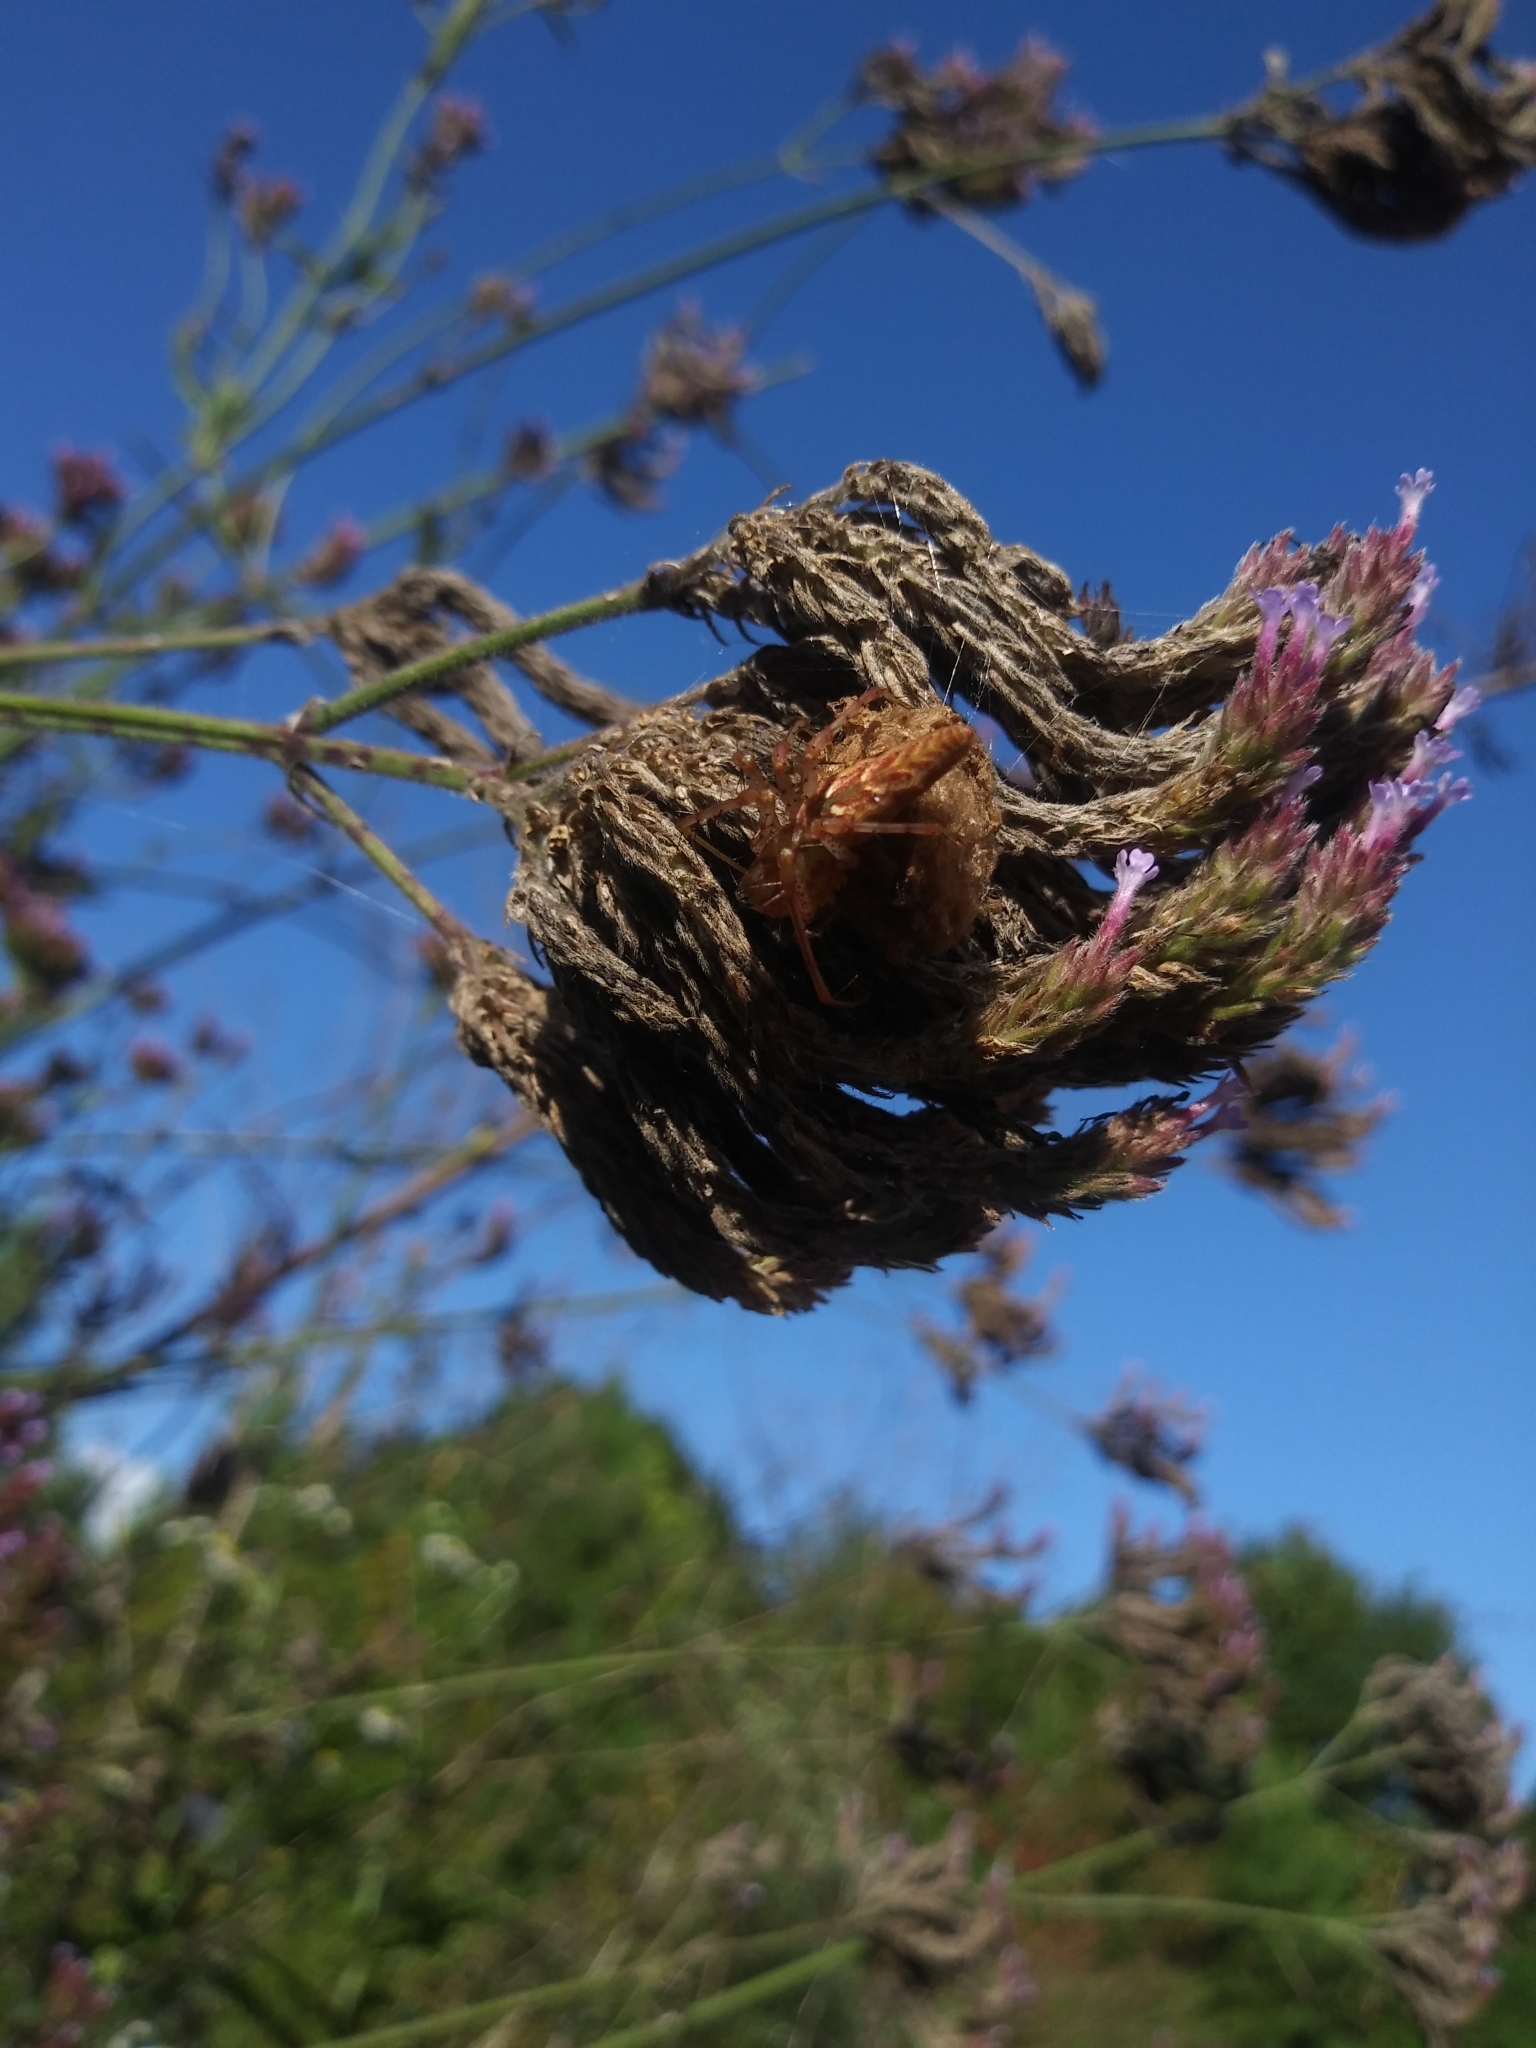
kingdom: Animalia
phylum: Arthropoda
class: Arachnida
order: Araneae
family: Oxyopidae
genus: Peucetia
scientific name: Peucetia viridans
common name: Lynx spiders
